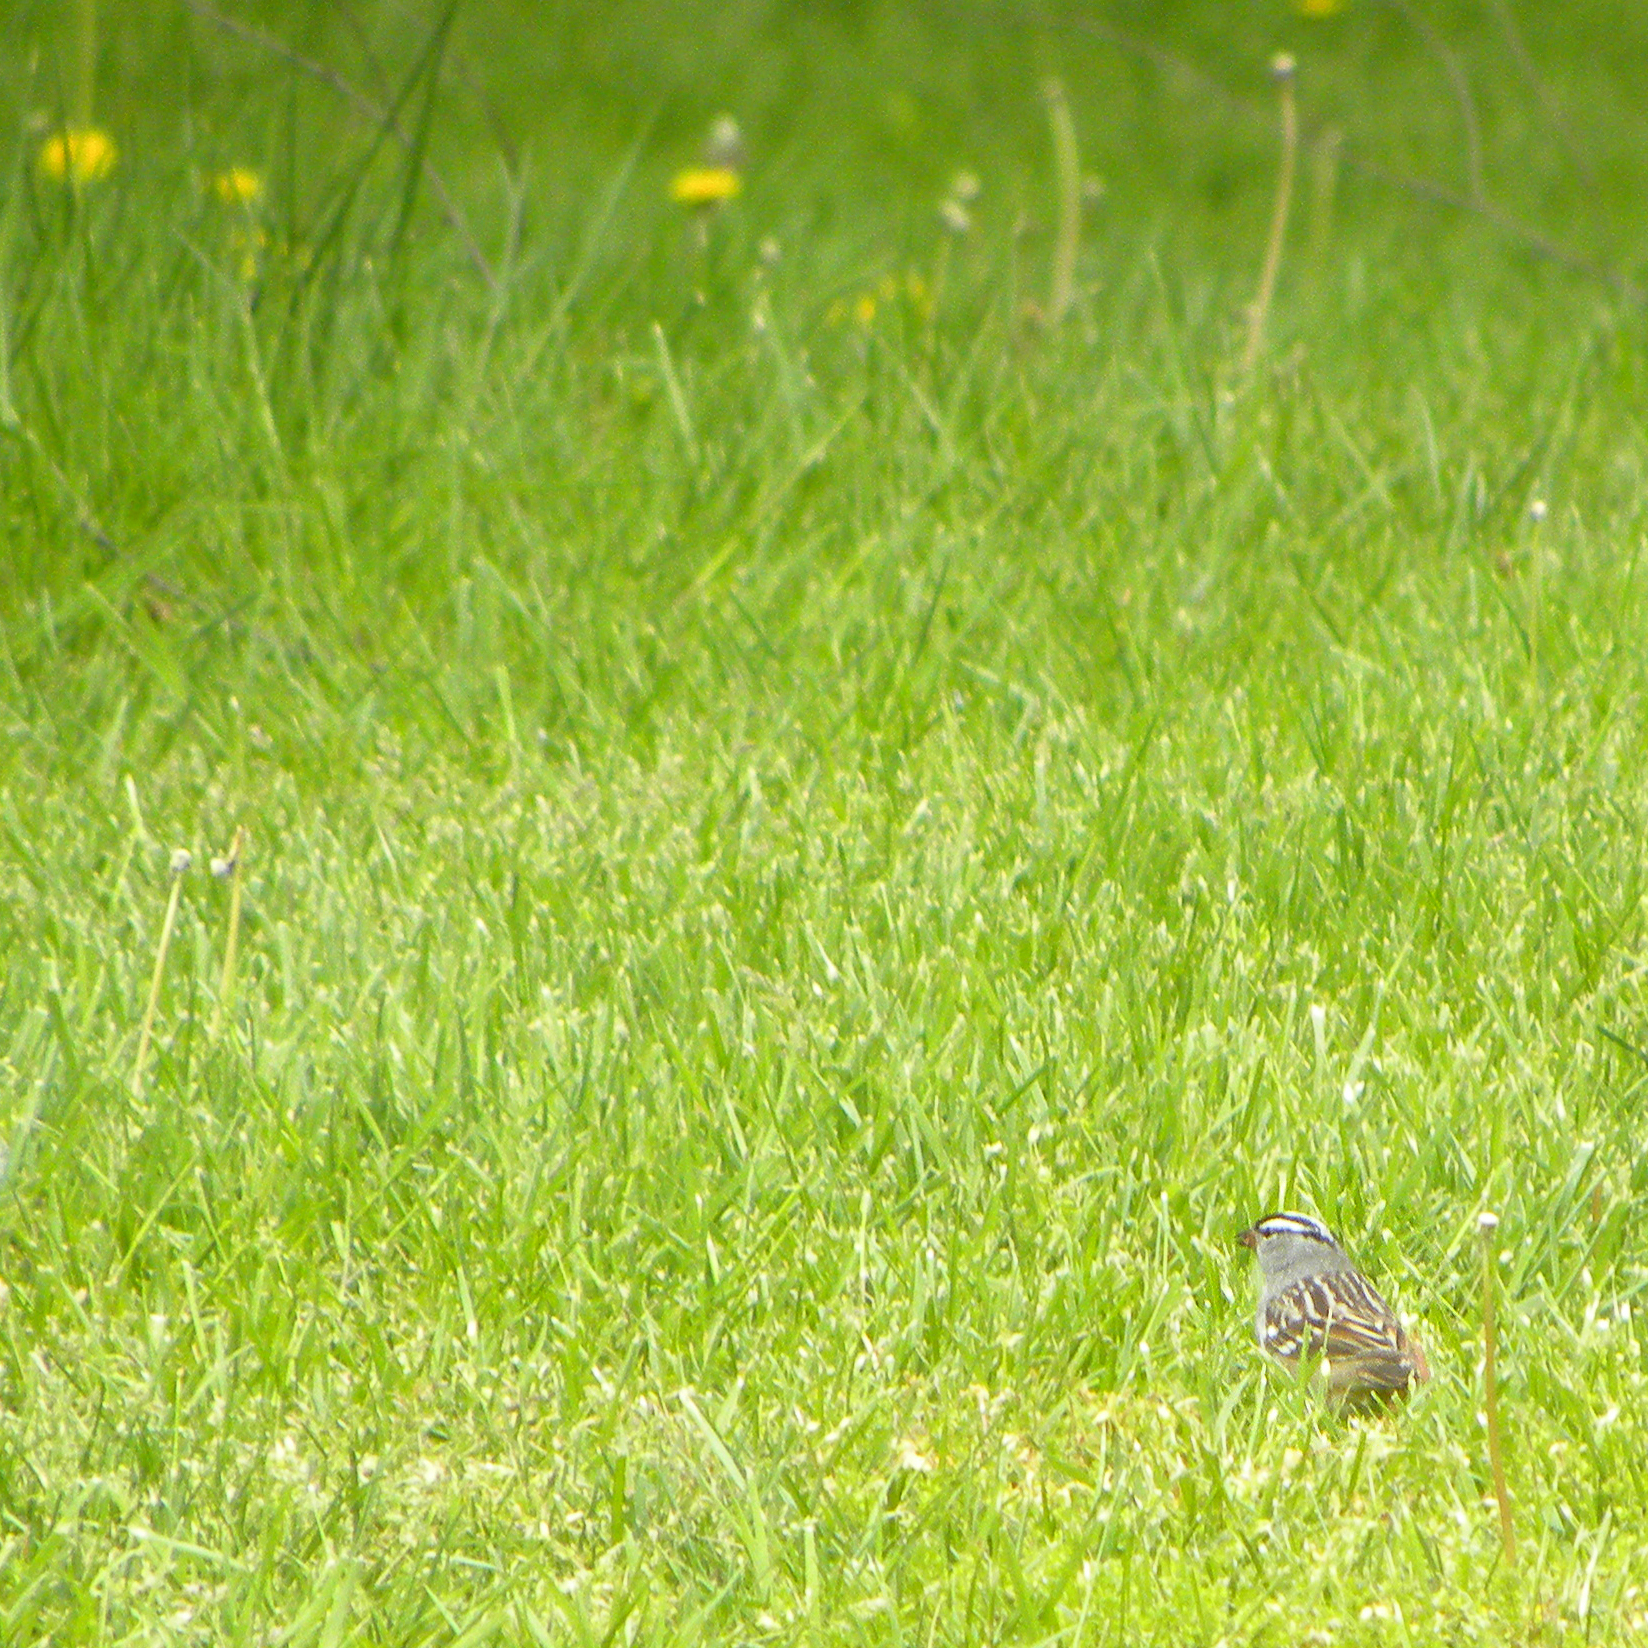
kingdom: Animalia
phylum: Chordata
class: Aves
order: Passeriformes
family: Passerellidae
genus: Zonotrichia
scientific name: Zonotrichia leucophrys
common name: White-crowned sparrow
